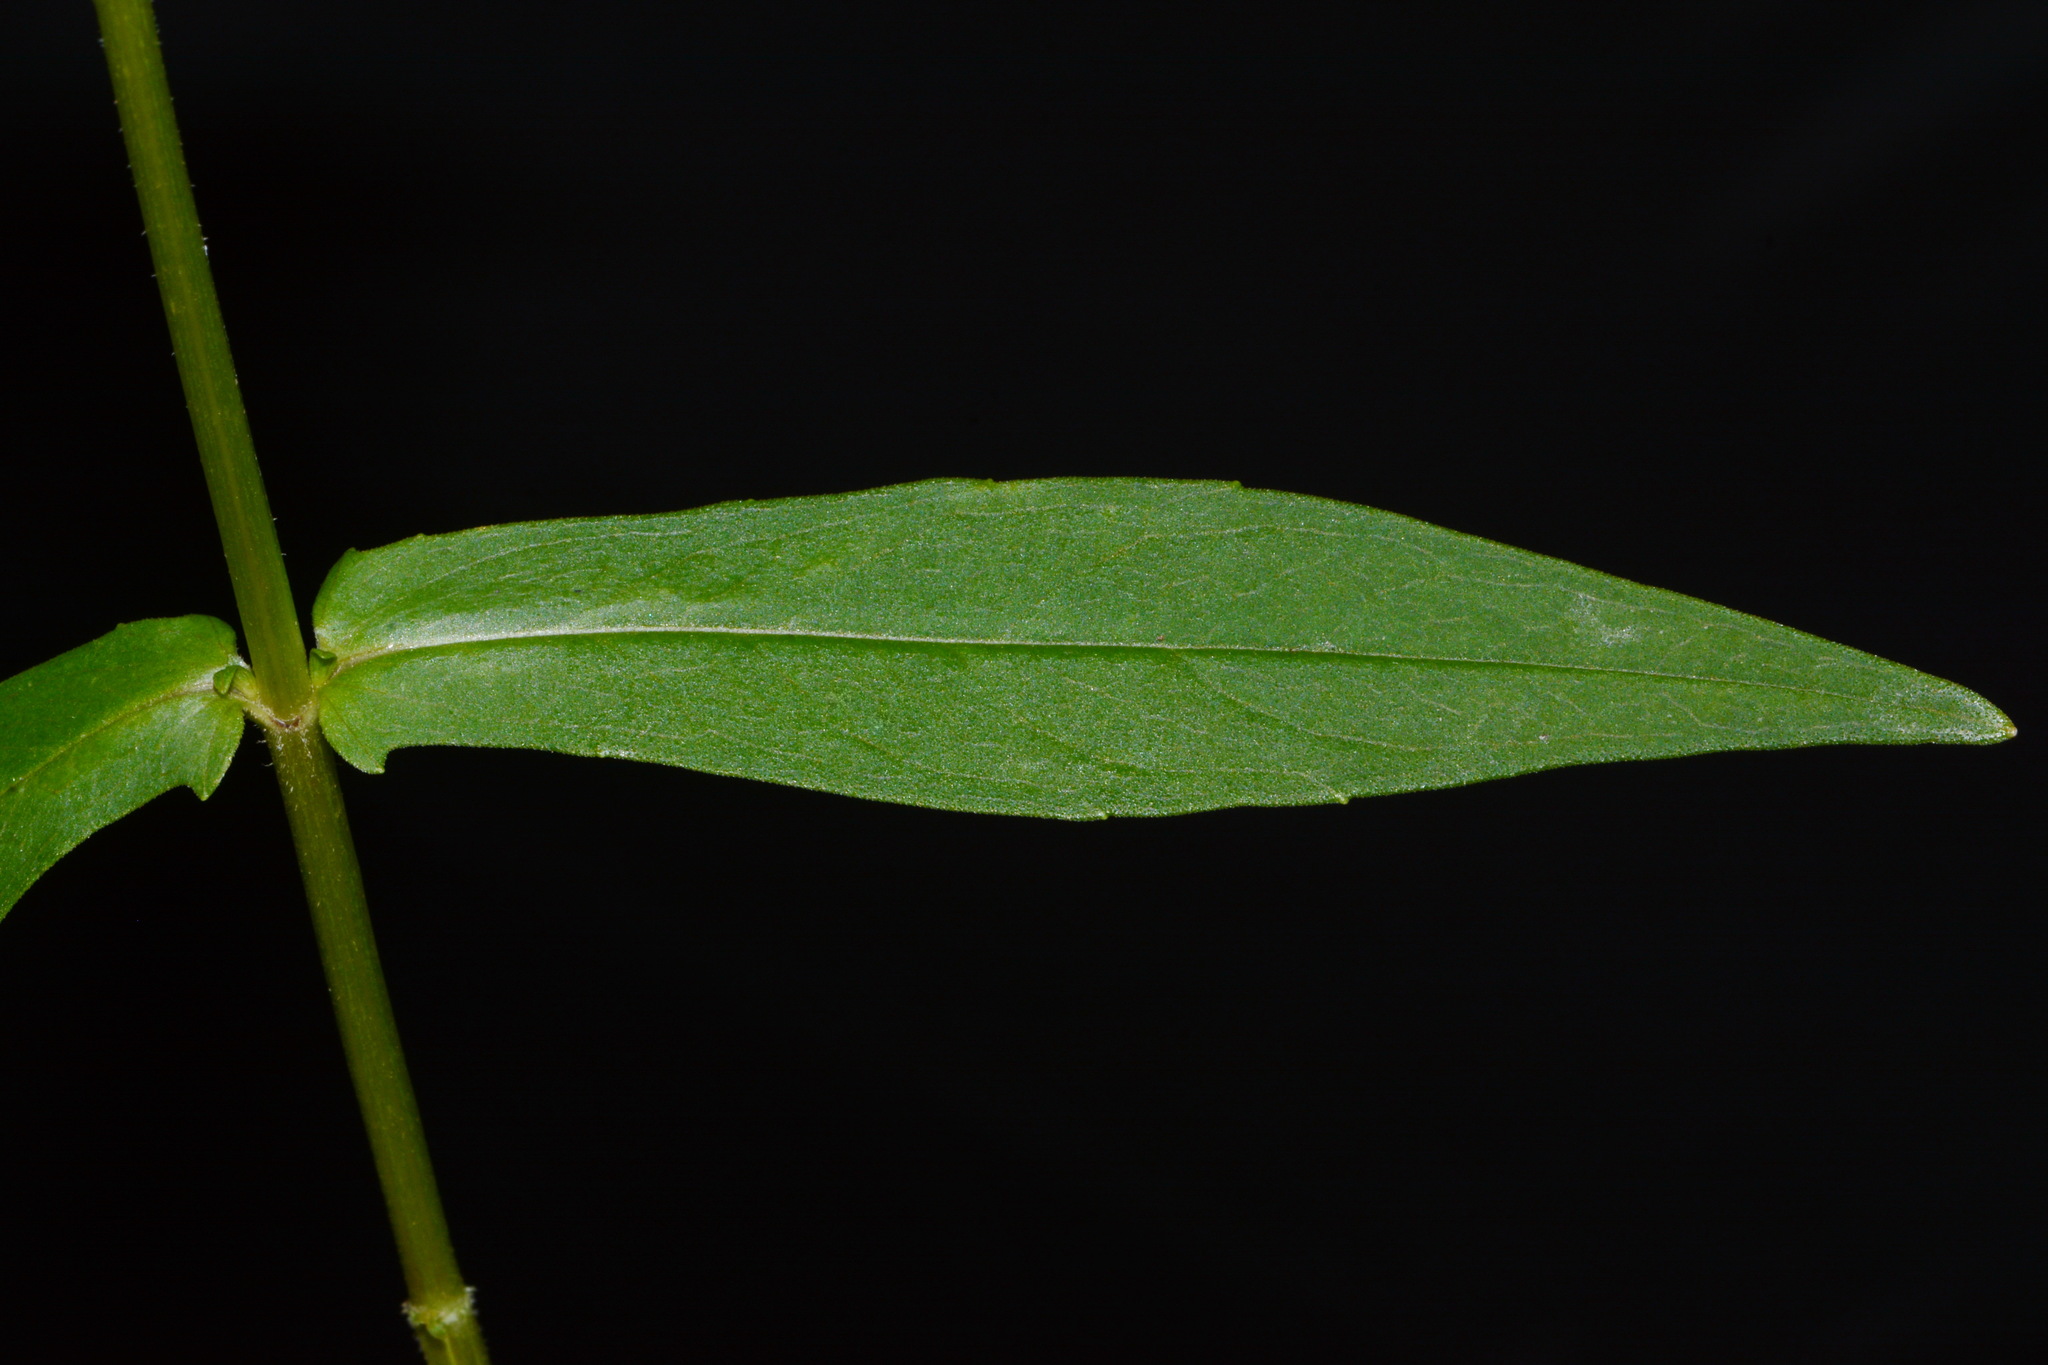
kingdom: Plantae
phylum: Tracheophyta
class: Magnoliopsida
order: Asterales
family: Asteraceae
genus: Jamesianthus
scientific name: Jamesianthus alabamensis
